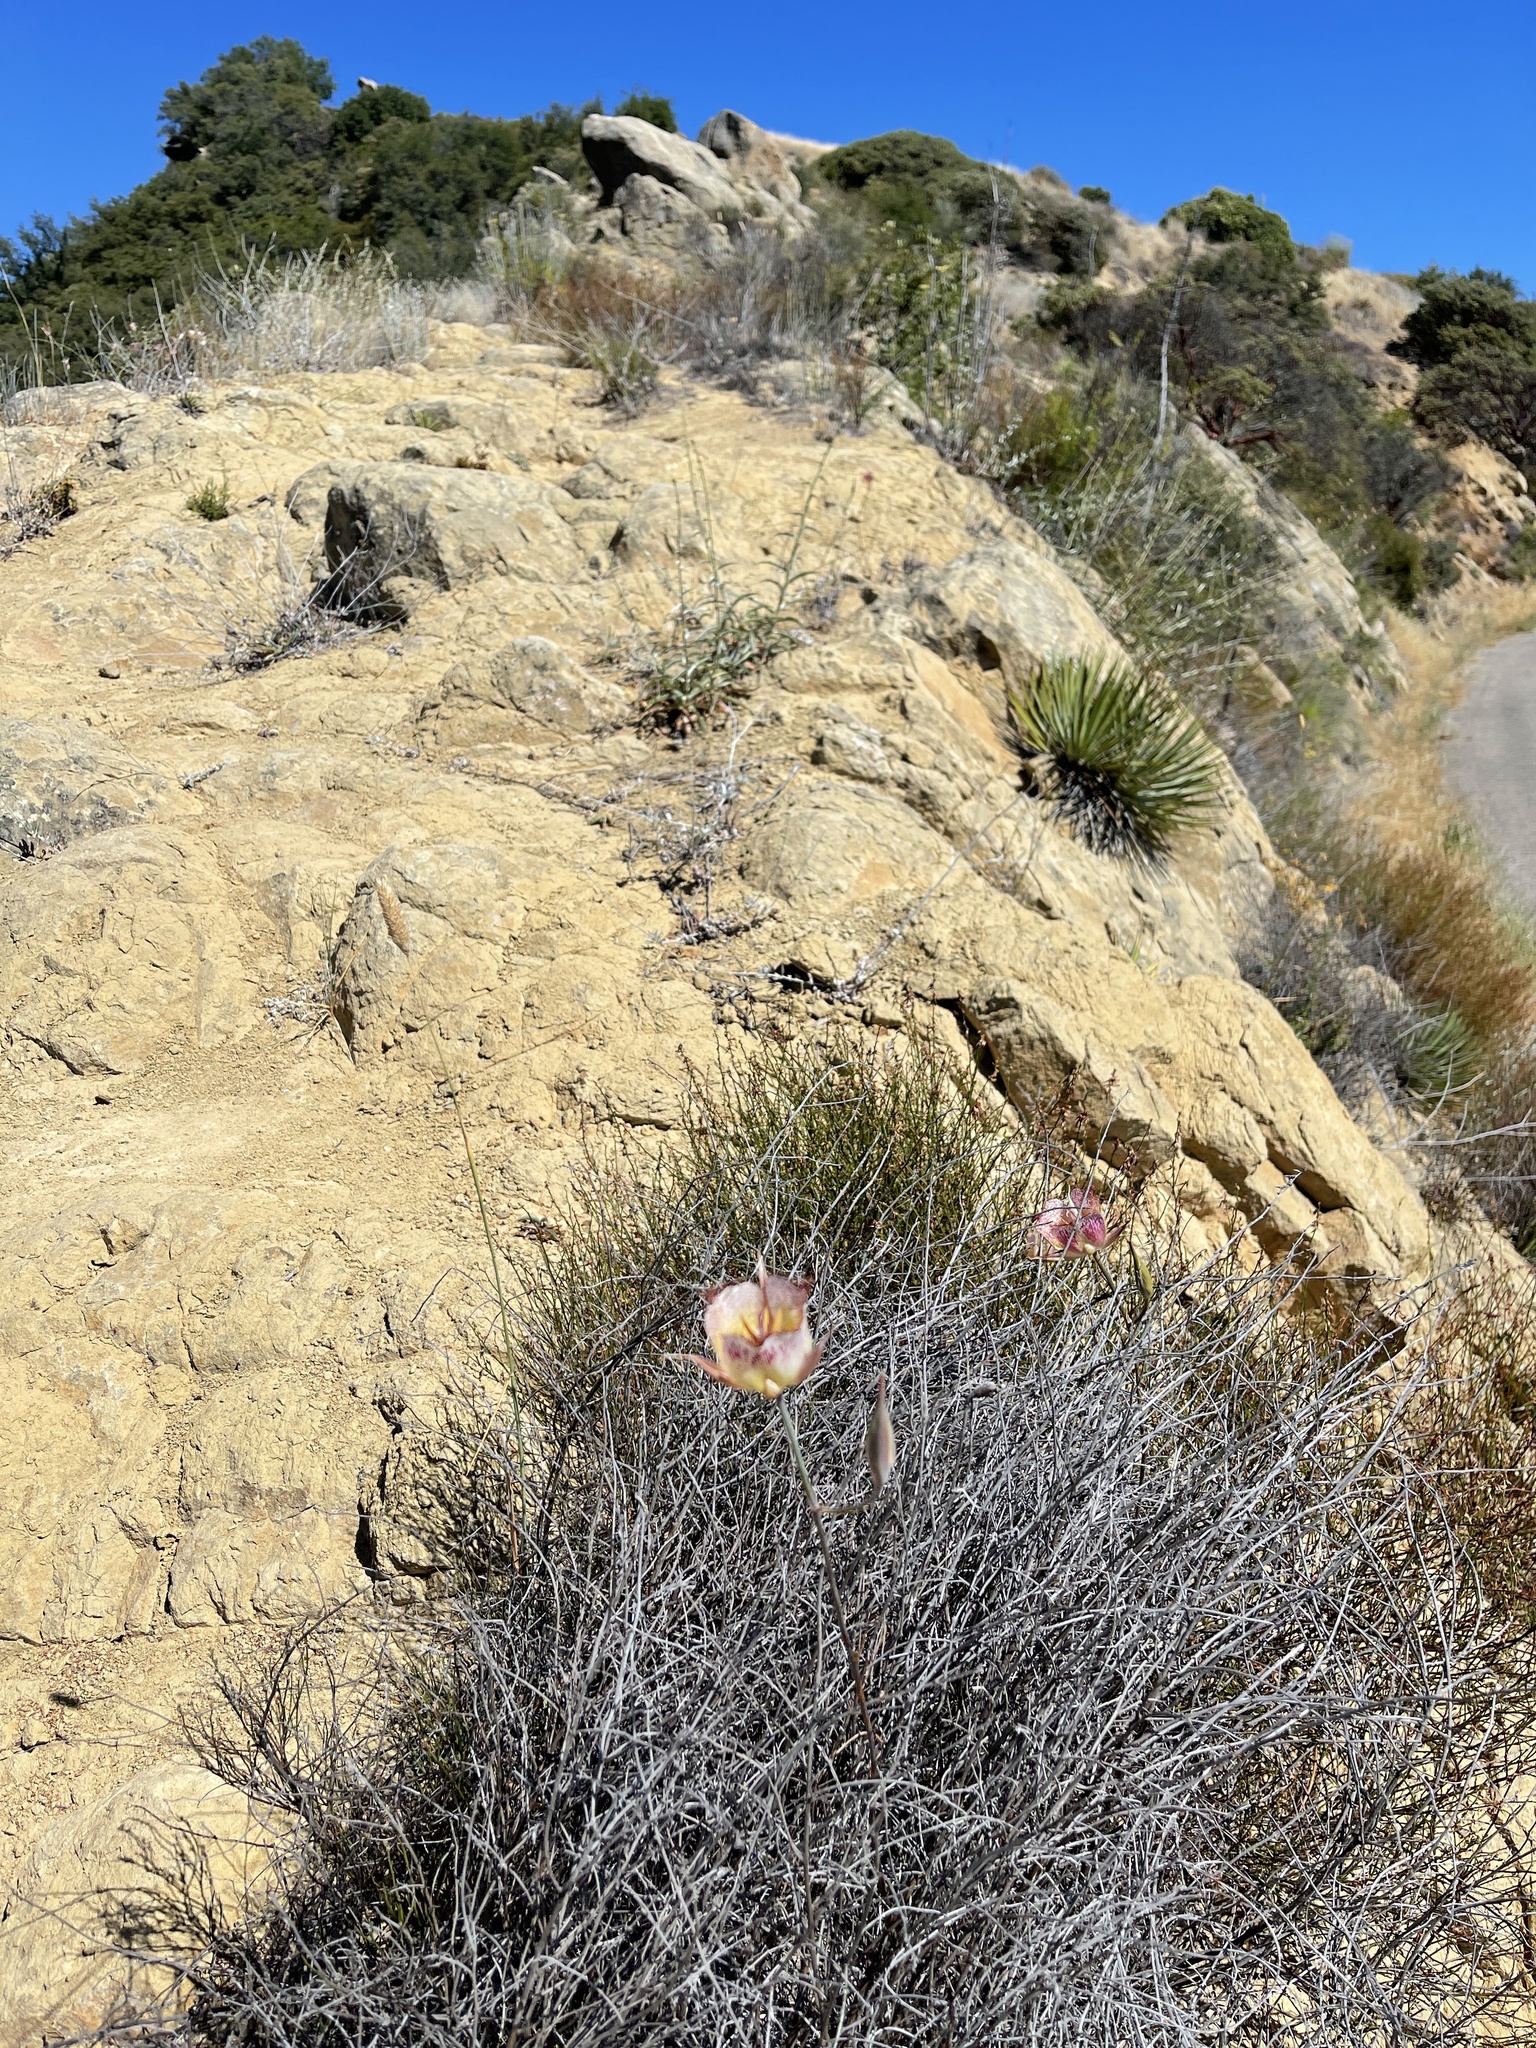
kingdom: Plantae
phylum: Tracheophyta
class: Liliopsida
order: Liliales
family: Liliaceae
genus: Calochortus
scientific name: Calochortus fimbriatus
